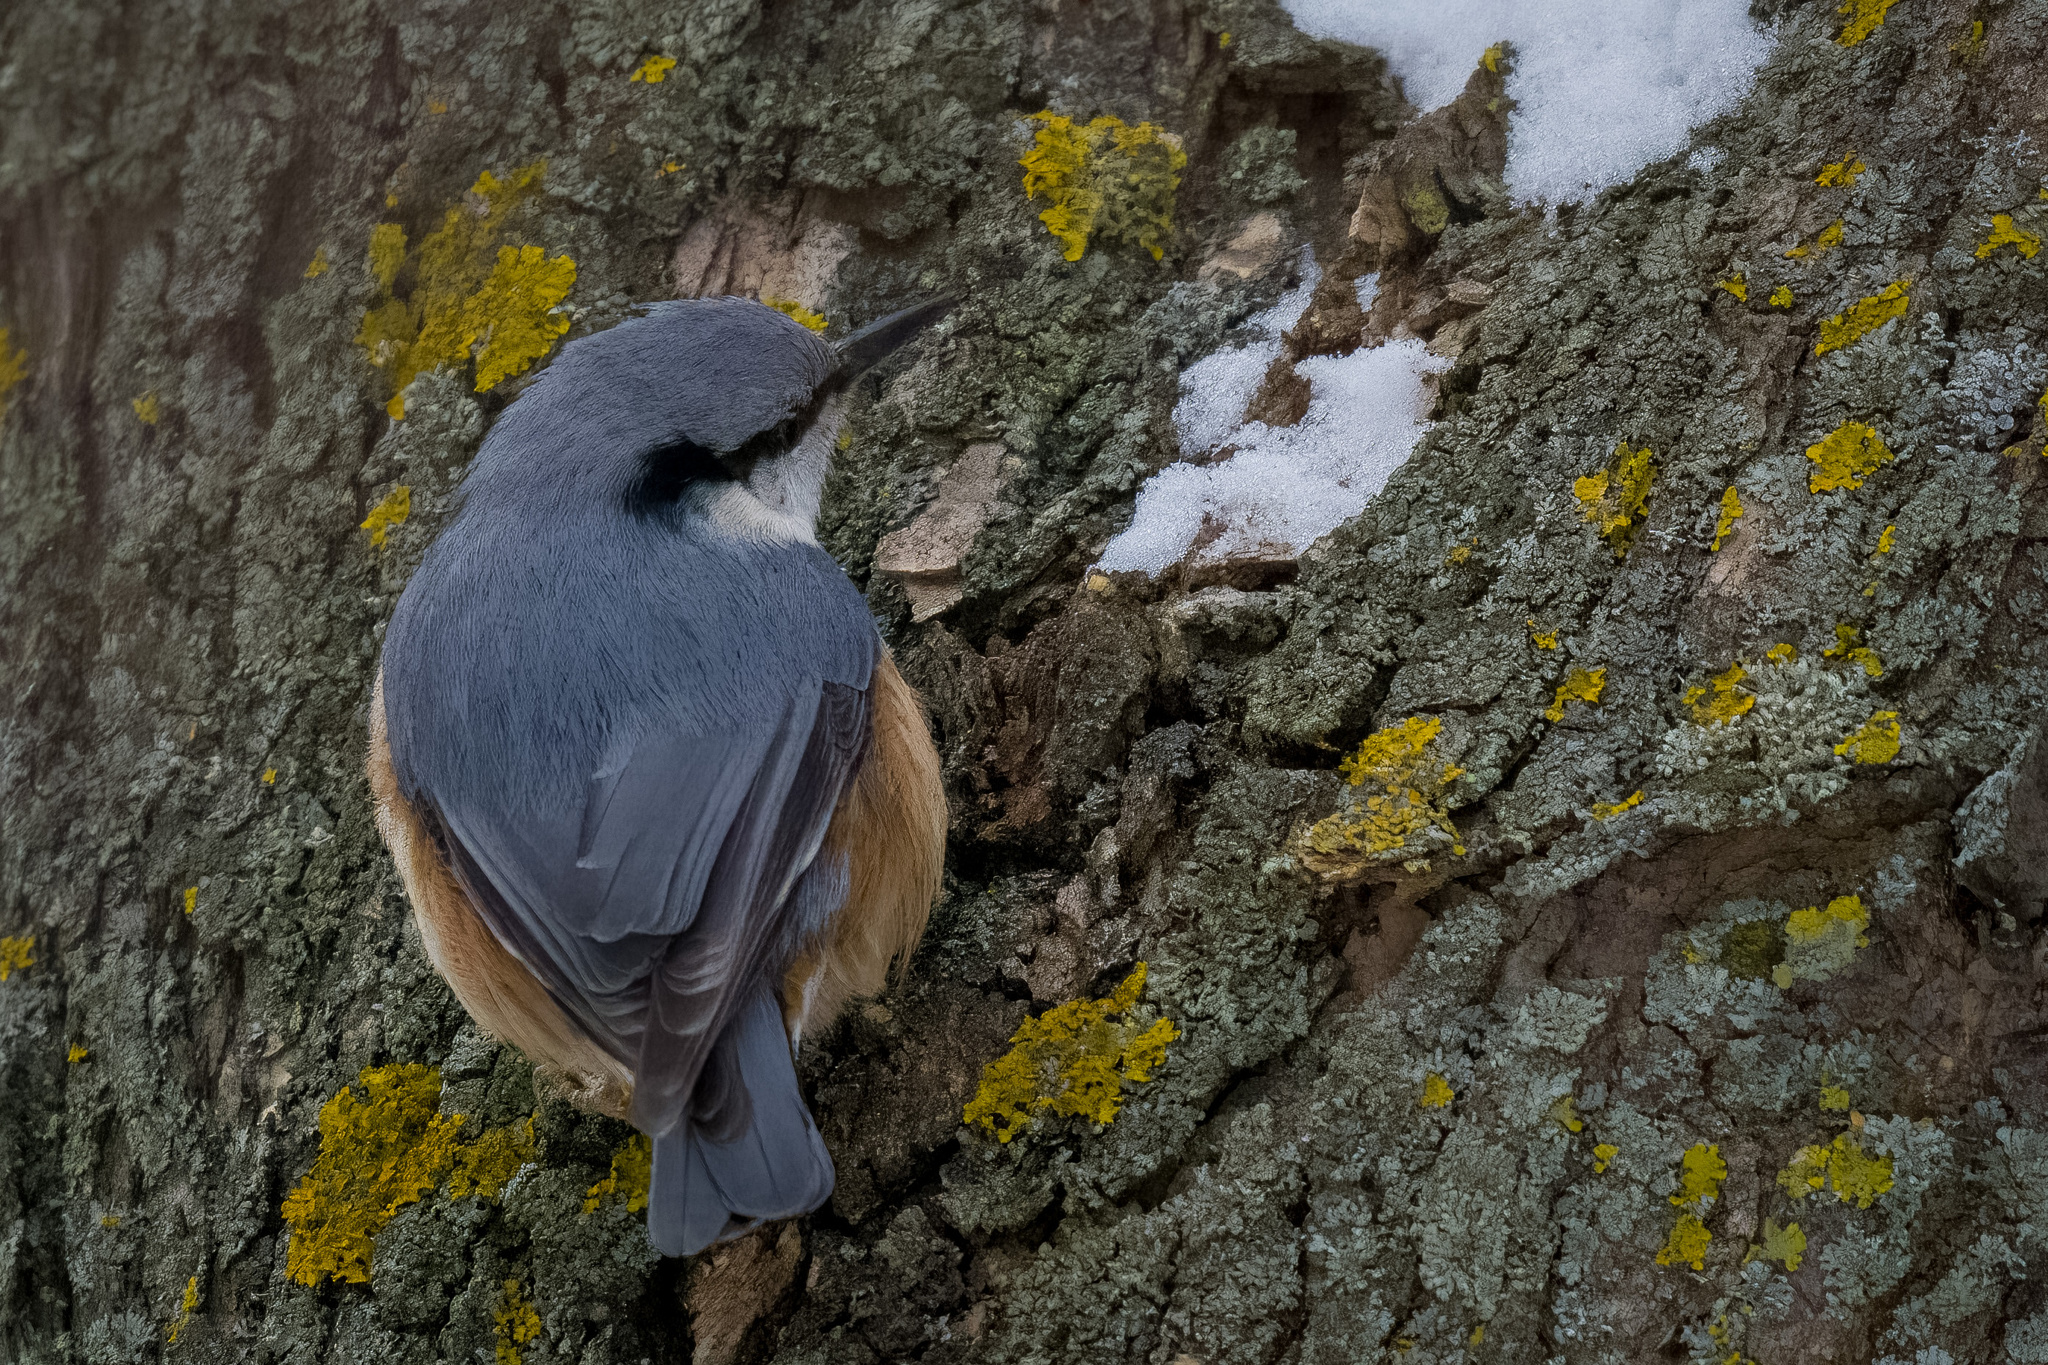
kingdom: Animalia
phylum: Chordata
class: Aves
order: Passeriformes
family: Sittidae
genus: Sitta
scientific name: Sitta europaea
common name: Eurasian nuthatch
